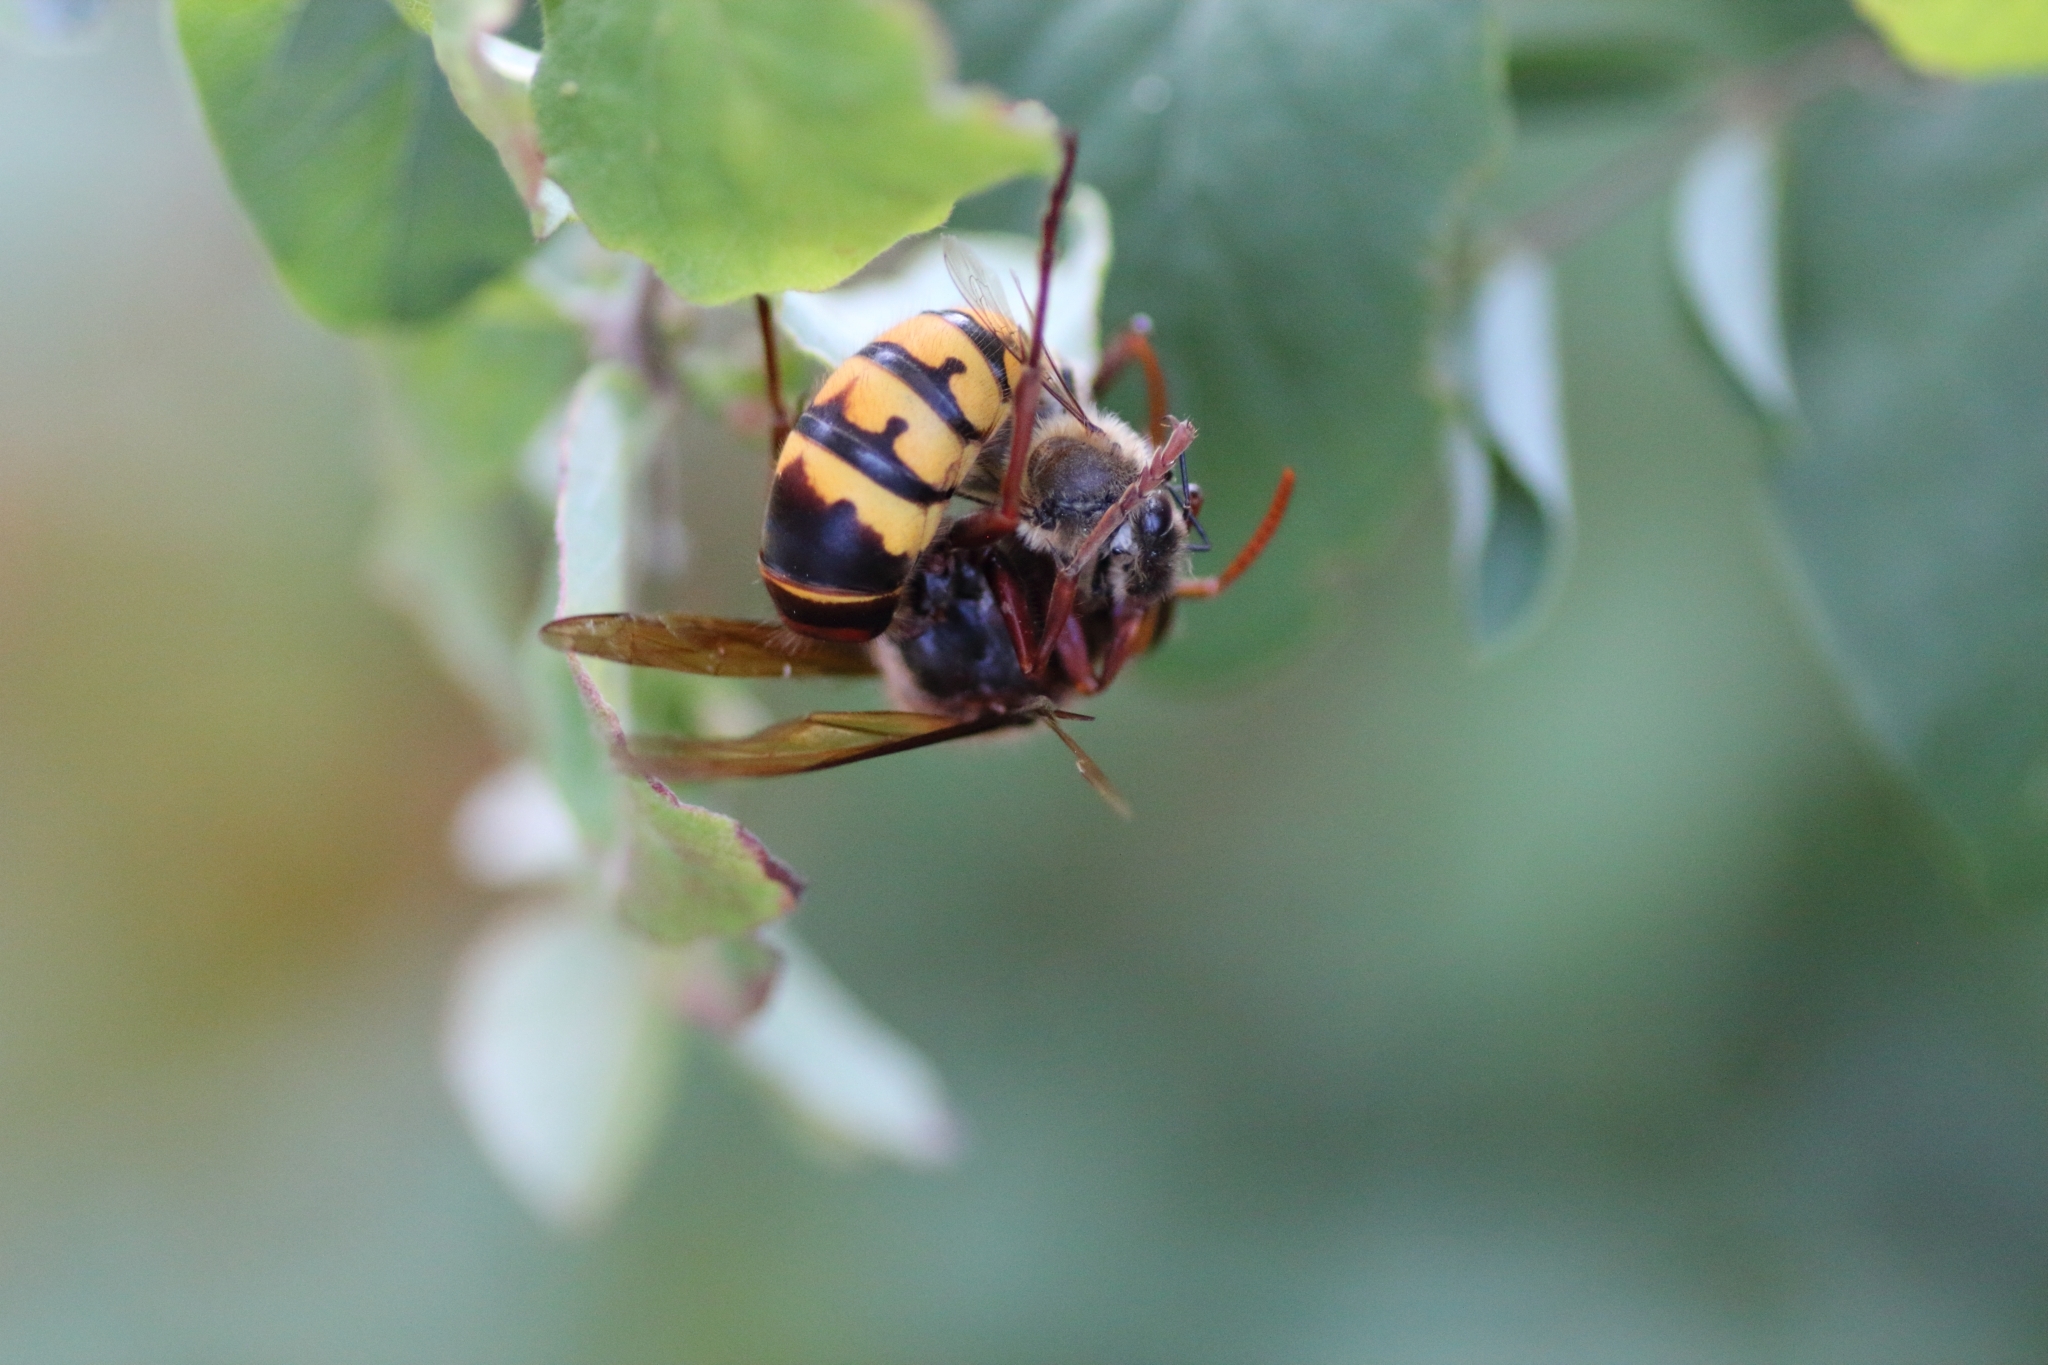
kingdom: Animalia
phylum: Arthropoda
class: Insecta
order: Hymenoptera
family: Vespidae
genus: Vespa
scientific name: Vespa crabro
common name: Hornet
